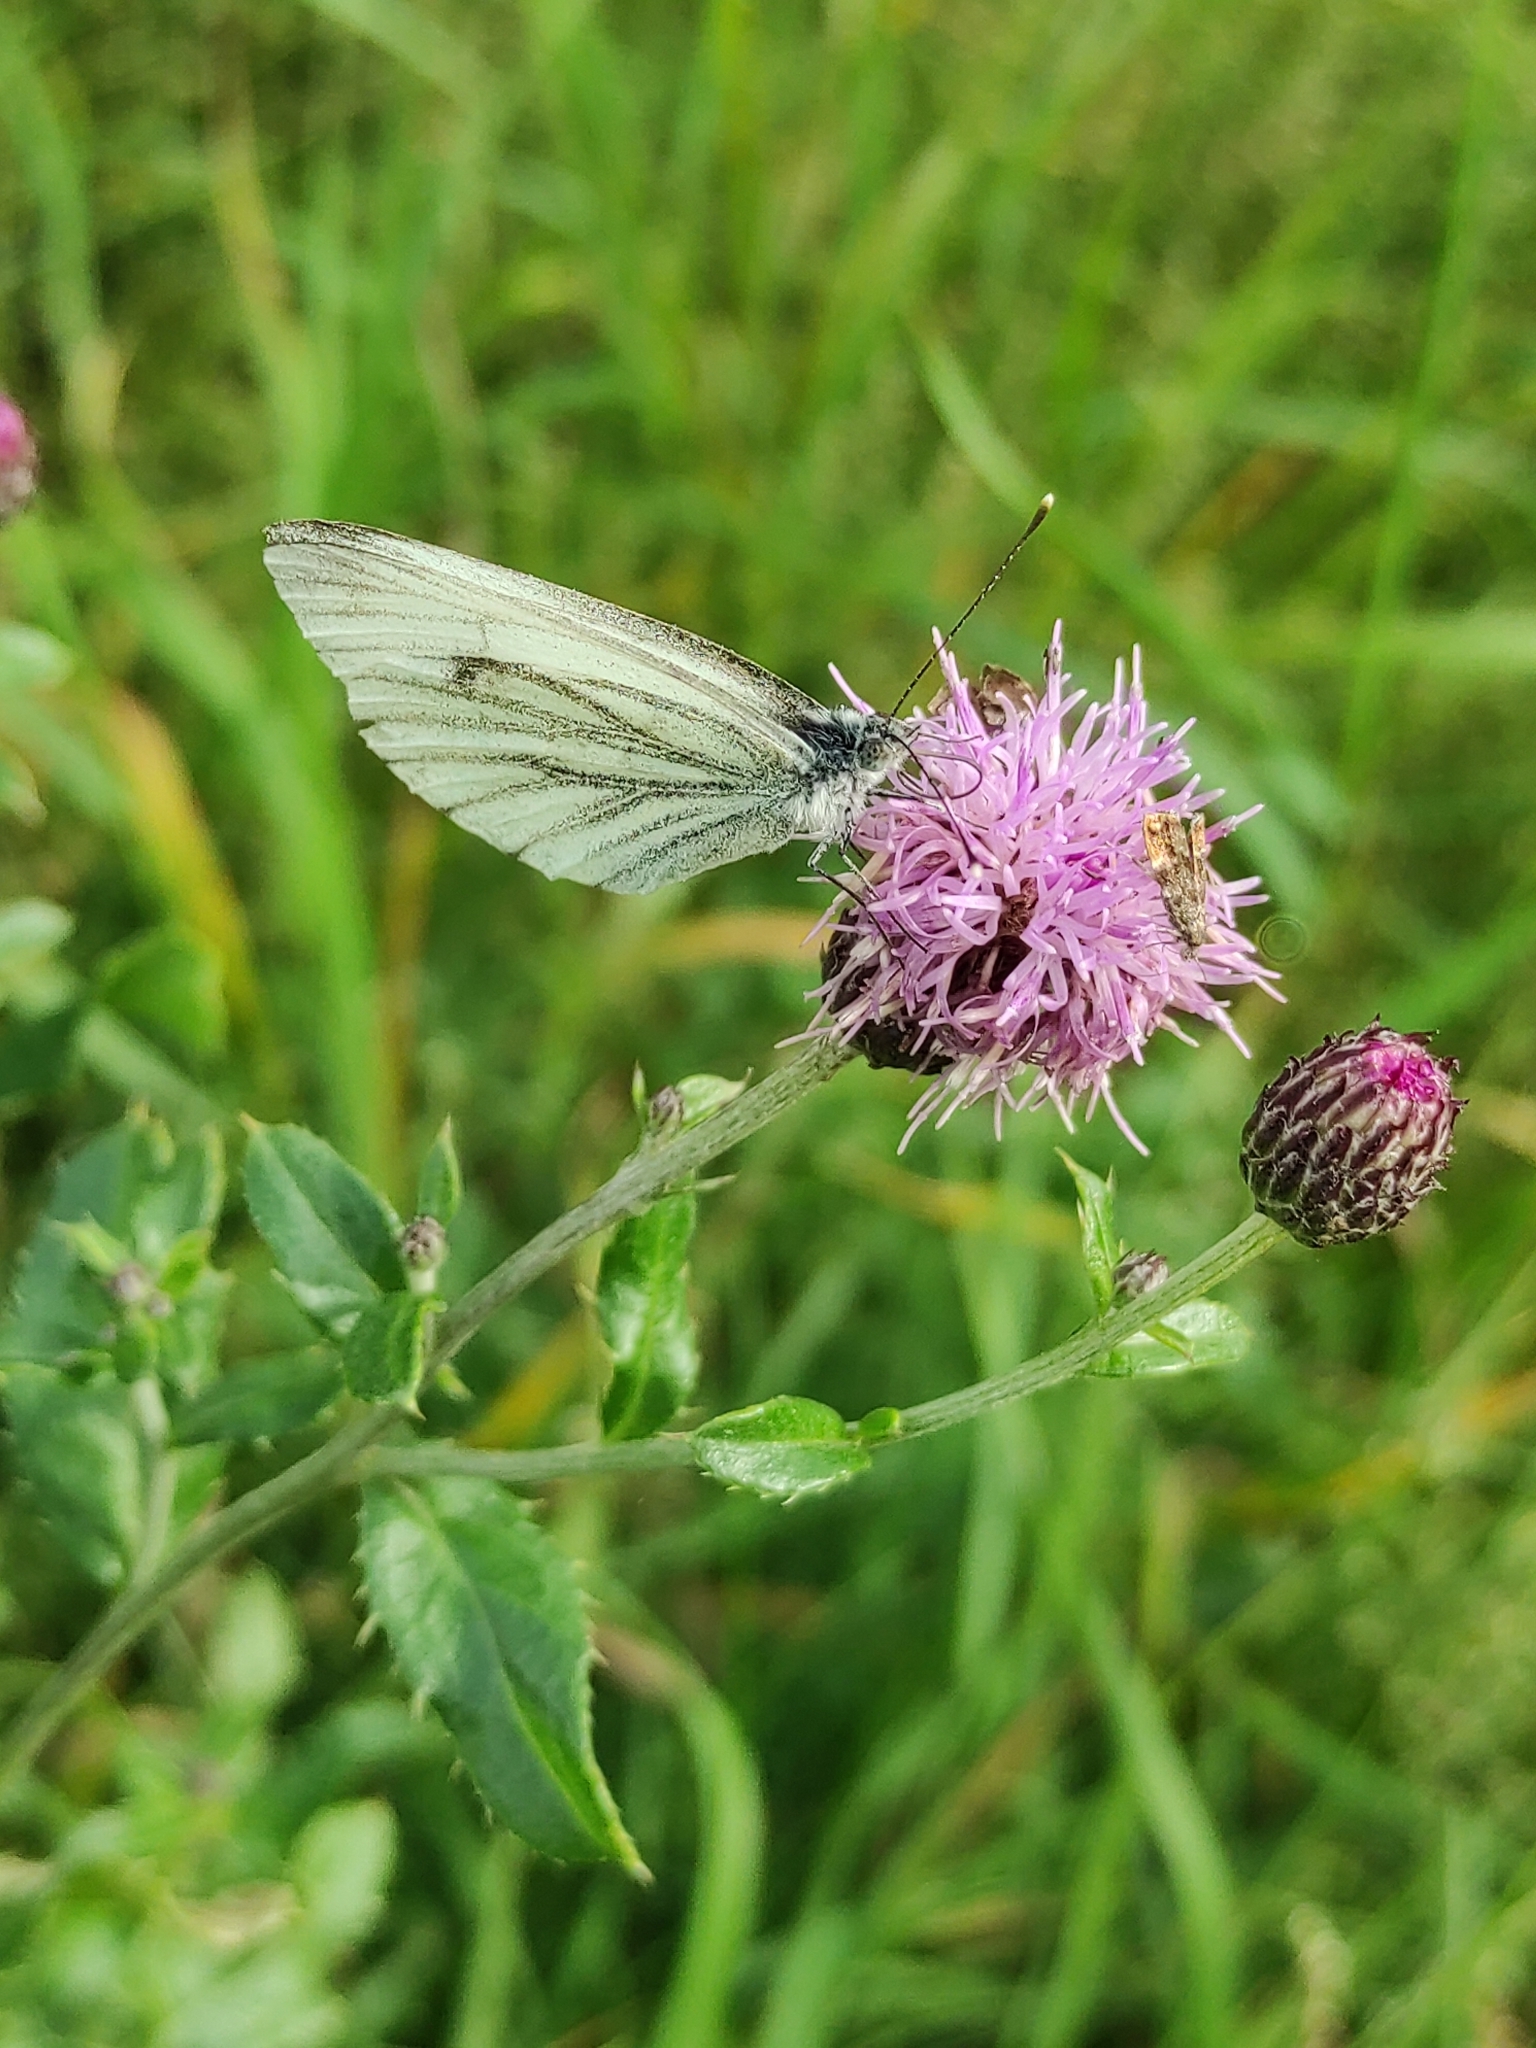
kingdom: Animalia
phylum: Arthropoda
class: Insecta
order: Lepidoptera
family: Pieridae
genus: Pieris
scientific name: Pieris napi
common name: Green-veined white
